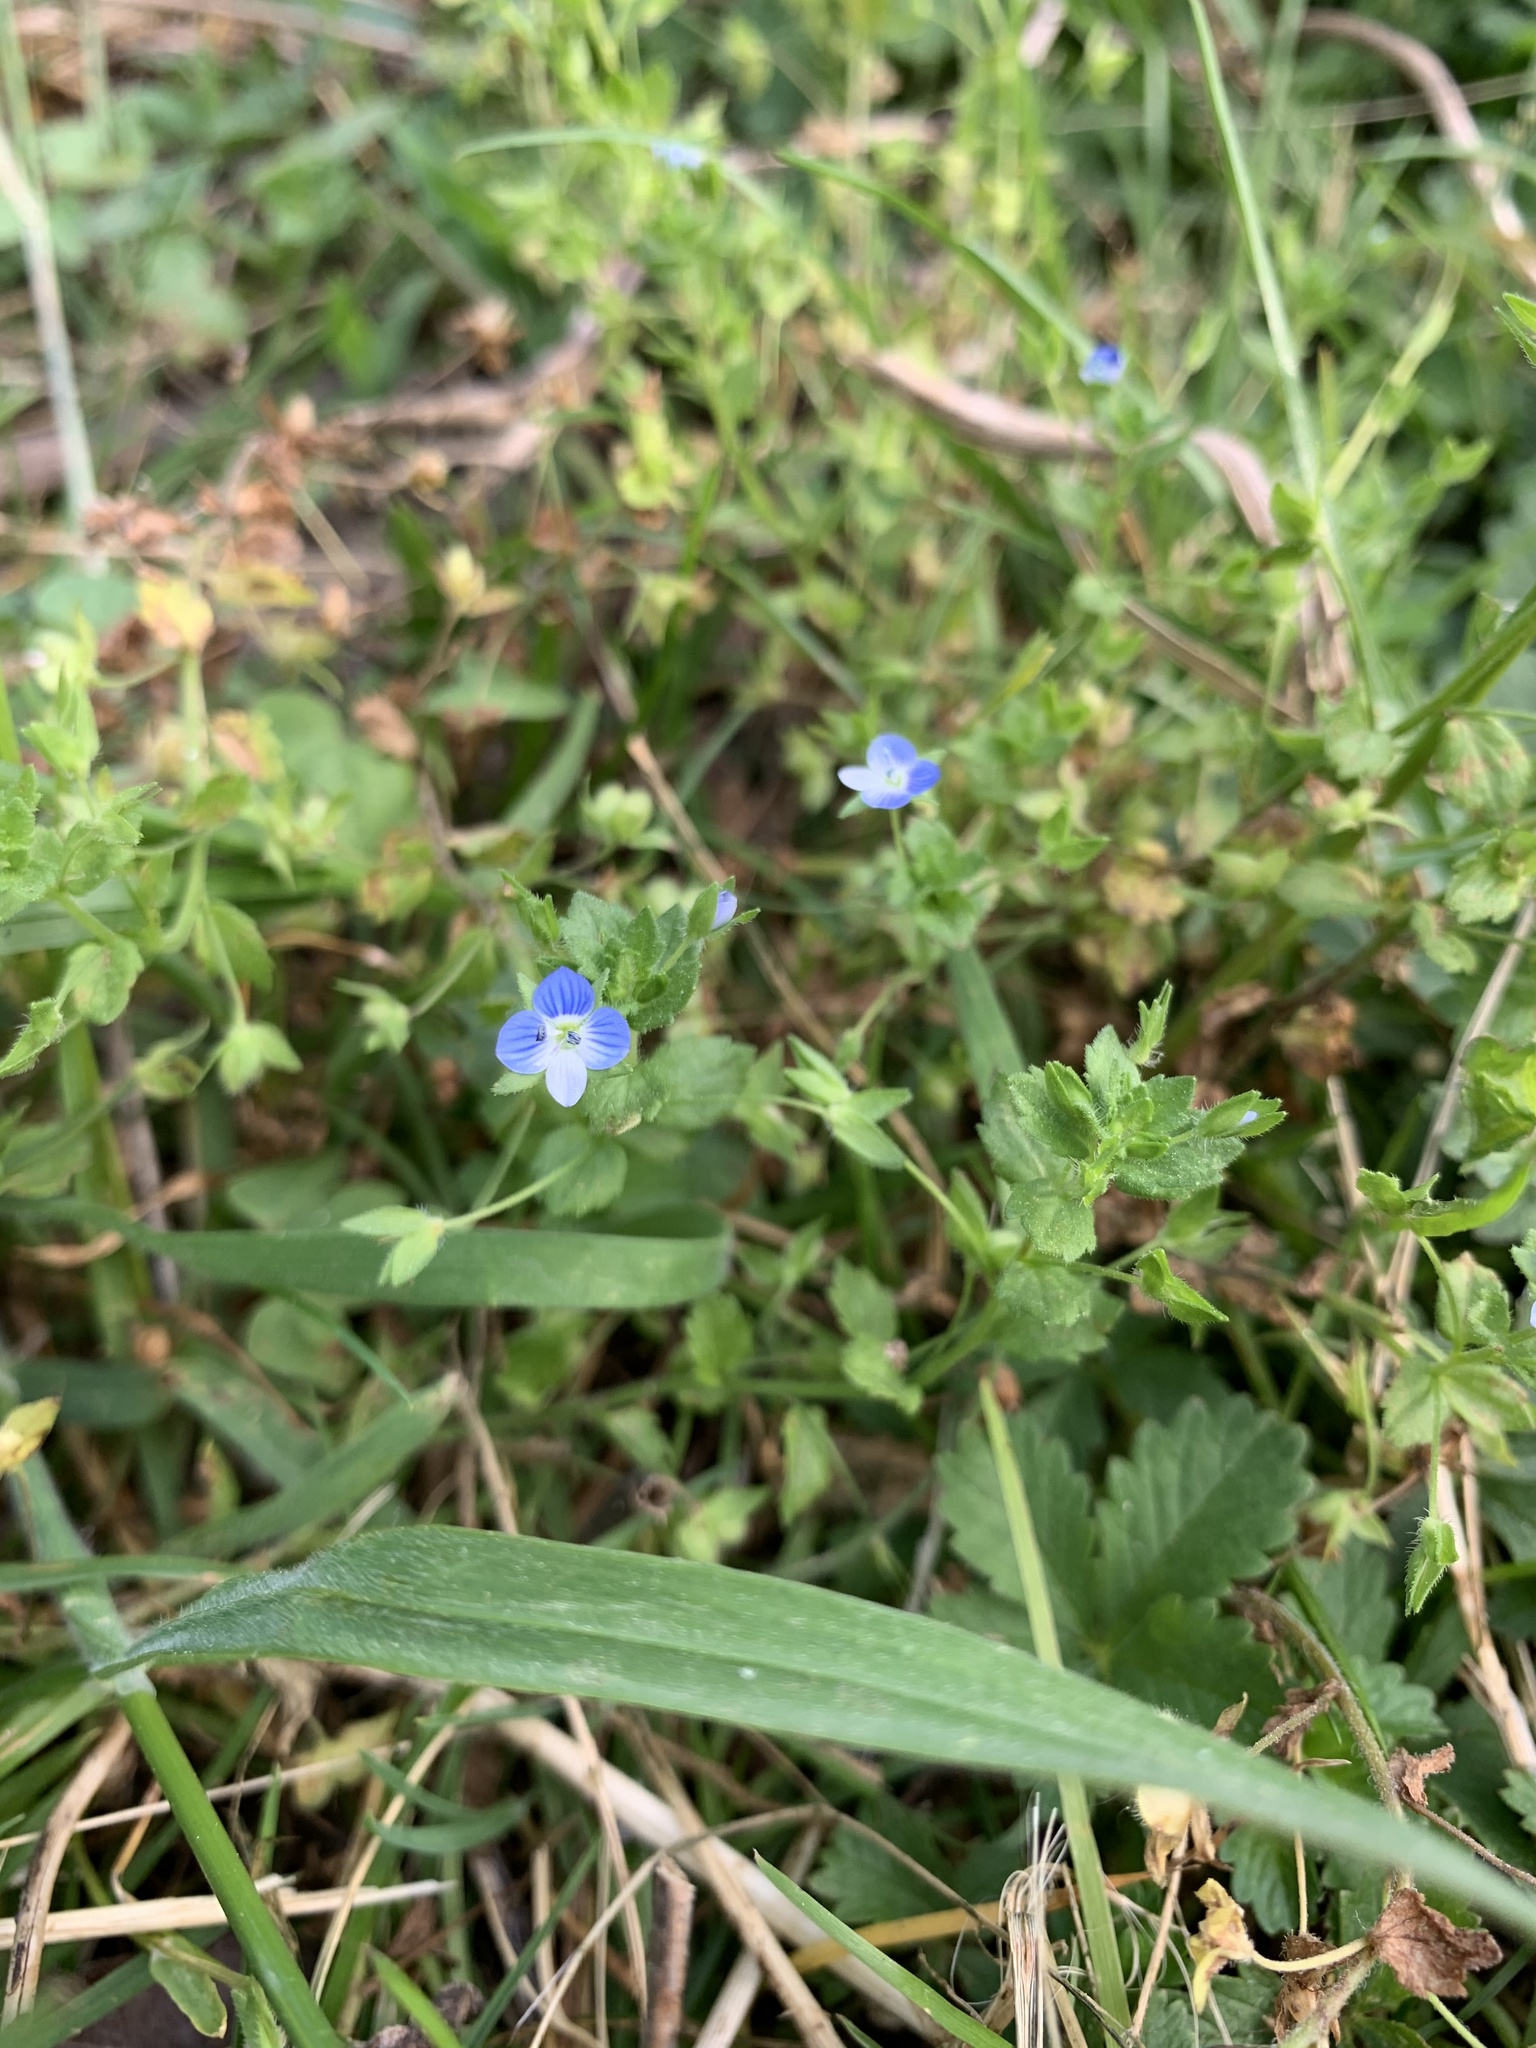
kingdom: Plantae
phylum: Tracheophyta
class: Magnoliopsida
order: Lamiales
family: Plantaginaceae
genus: Veronica
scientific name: Veronica persica
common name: Common field-speedwell
